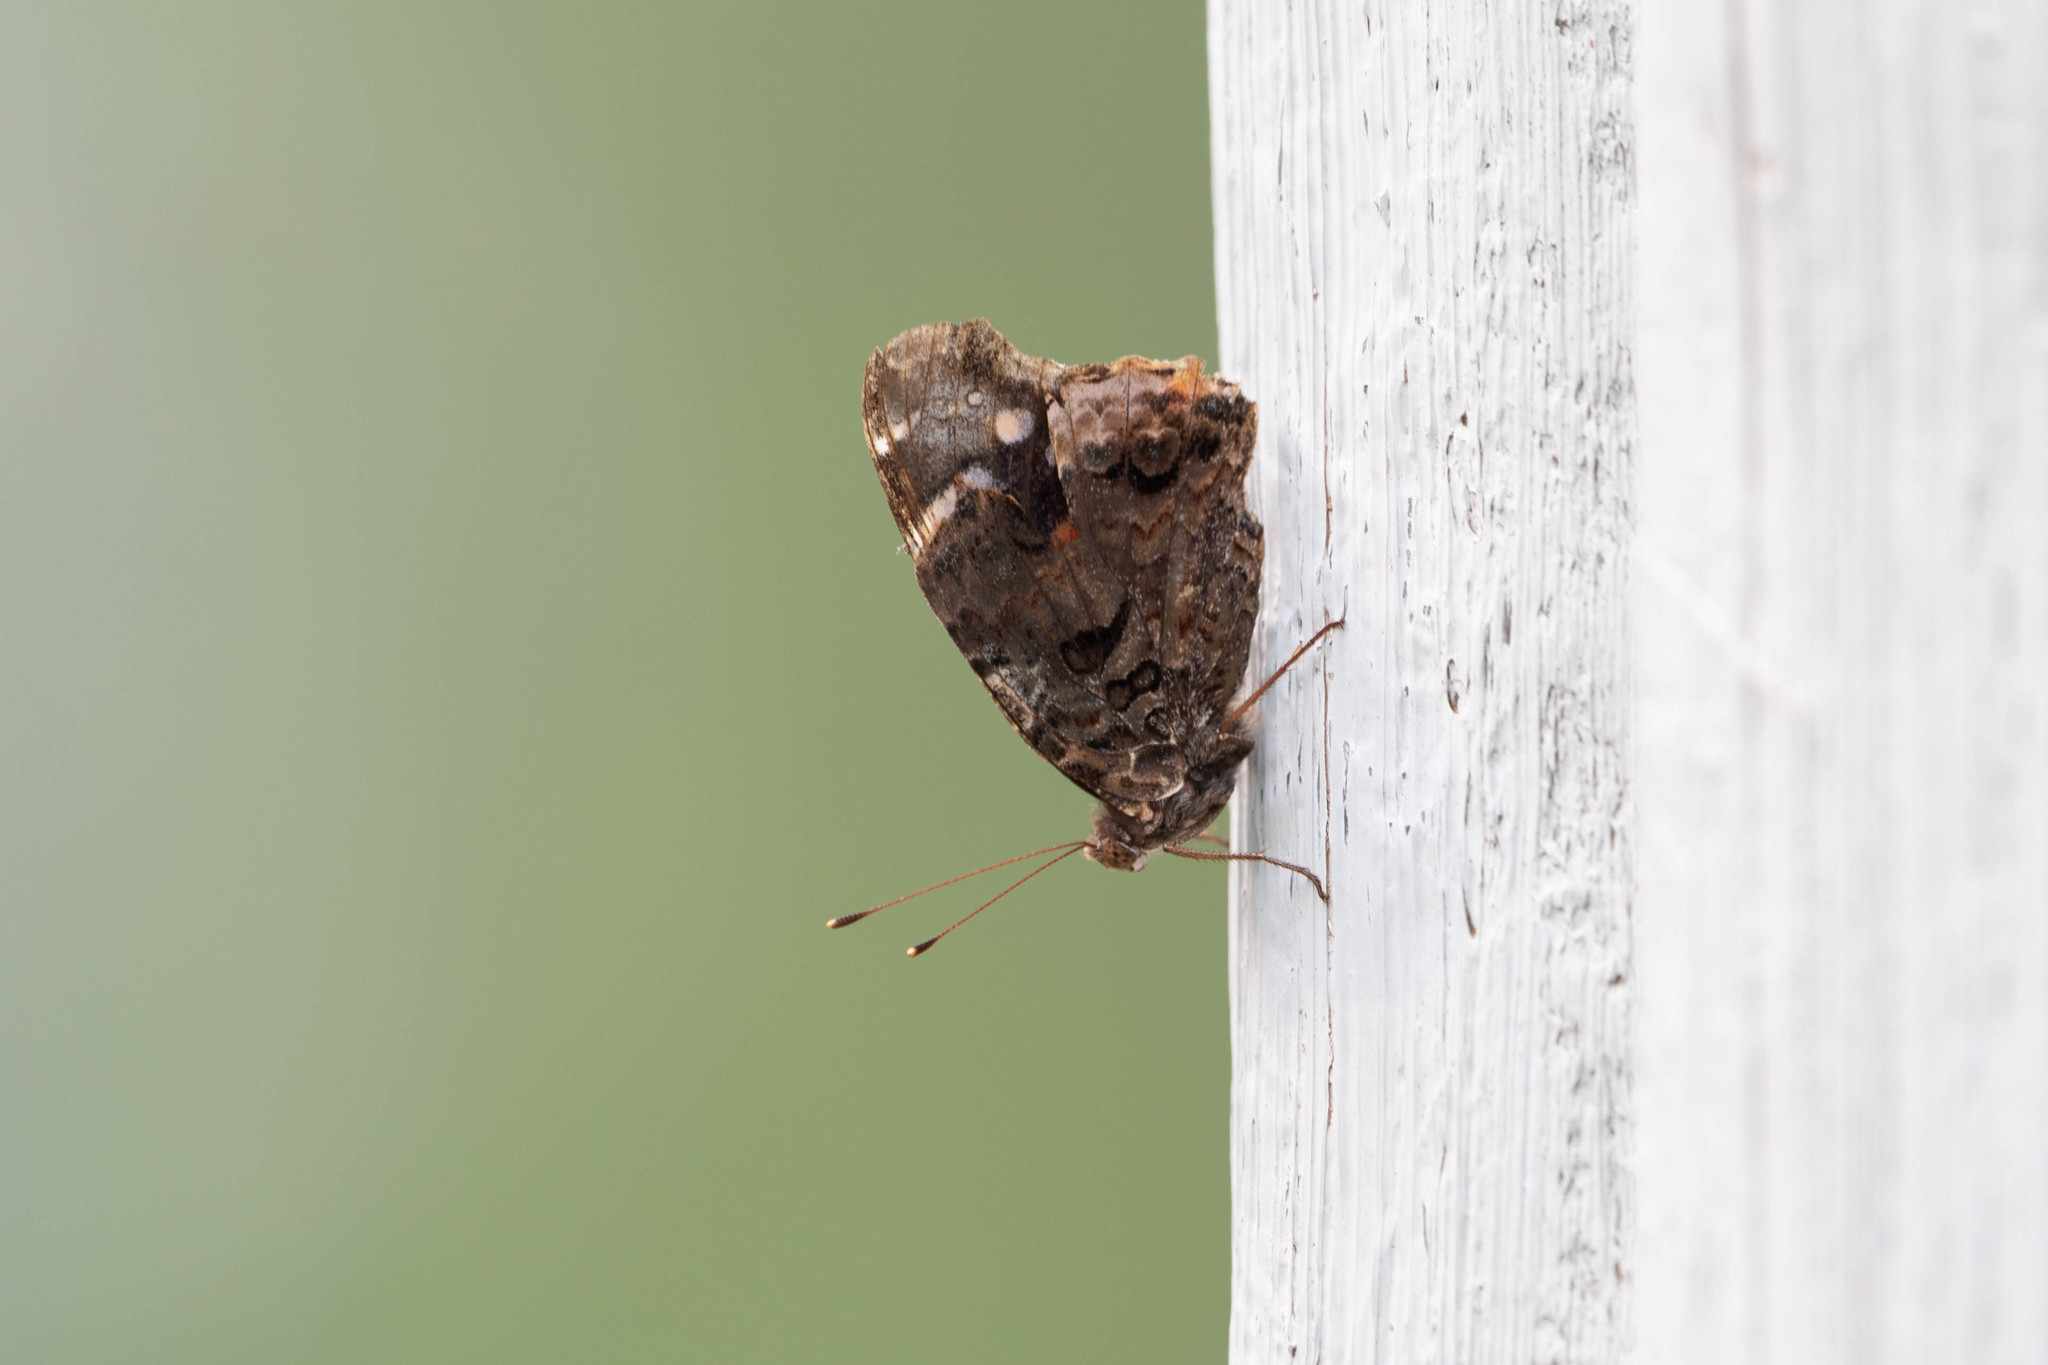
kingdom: Animalia
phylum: Arthropoda
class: Insecta
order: Lepidoptera
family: Nymphalidae
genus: Vanessa
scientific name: Vanessa atalanta
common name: Red admiral
